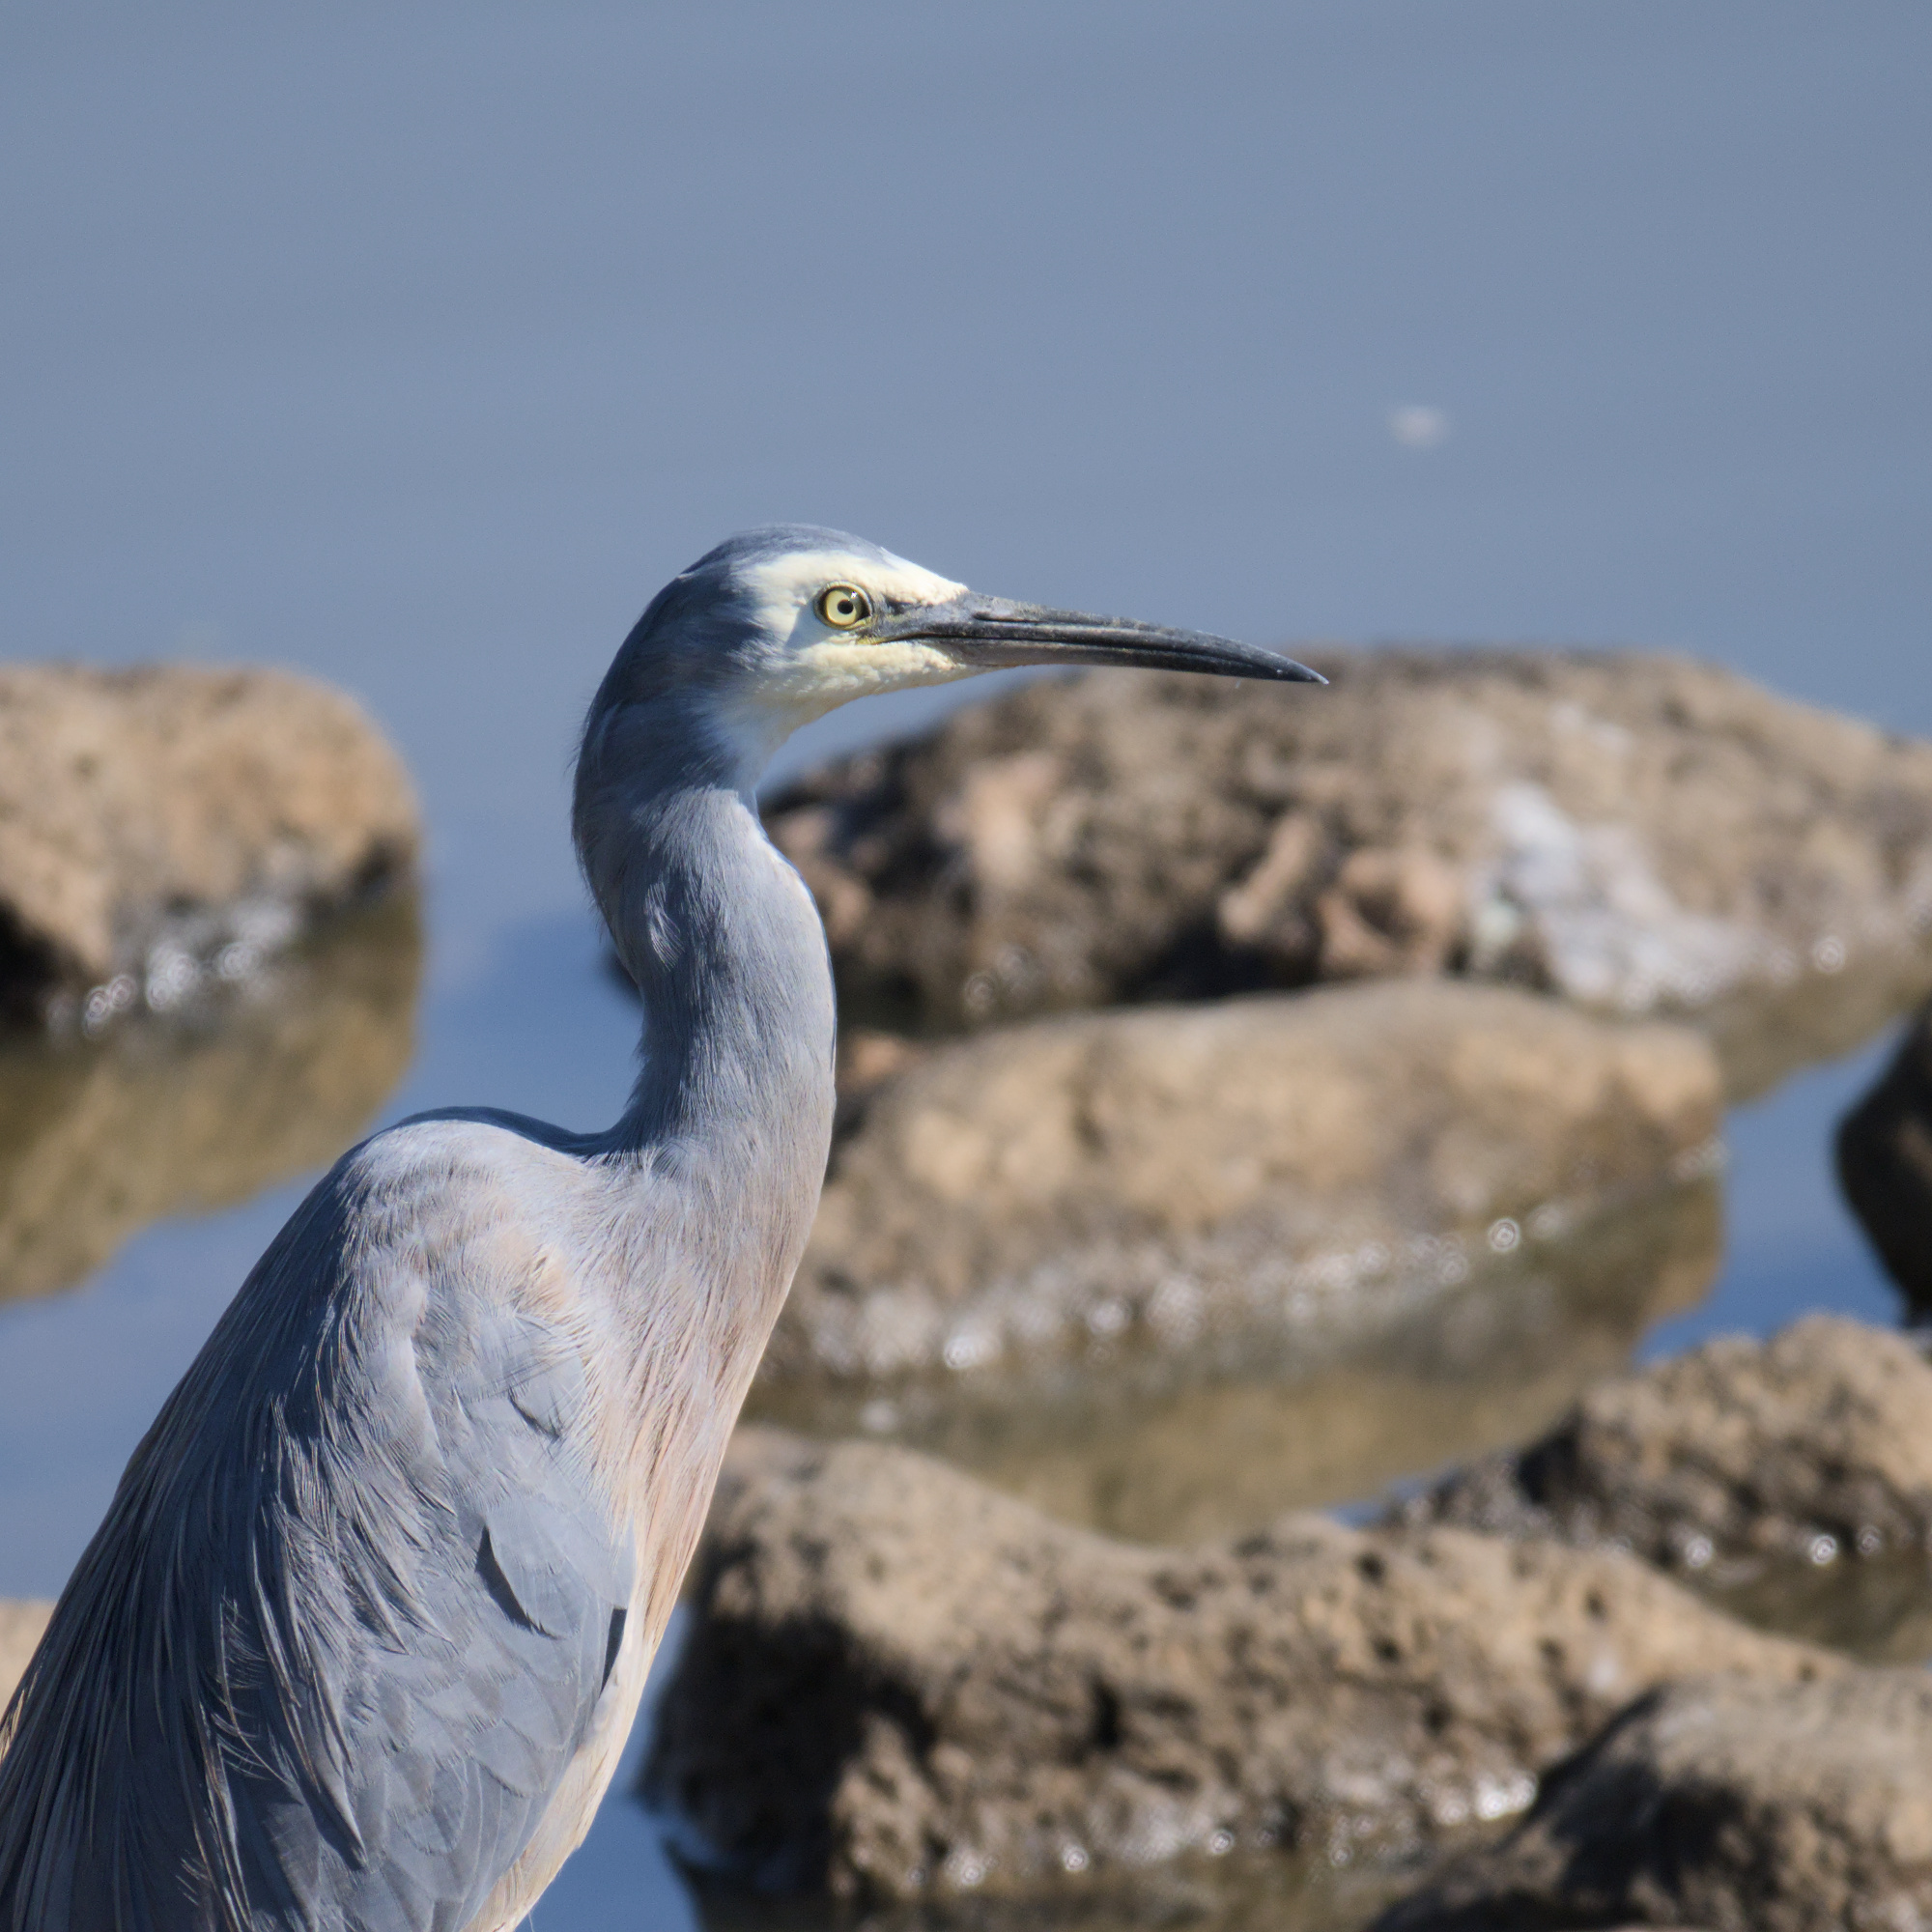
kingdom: Animalia
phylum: Chordata
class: Aves
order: Pelecaniformes
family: Ardeidae
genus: Egretta
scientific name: Egretta novaehollandiae
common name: White-faced heron
